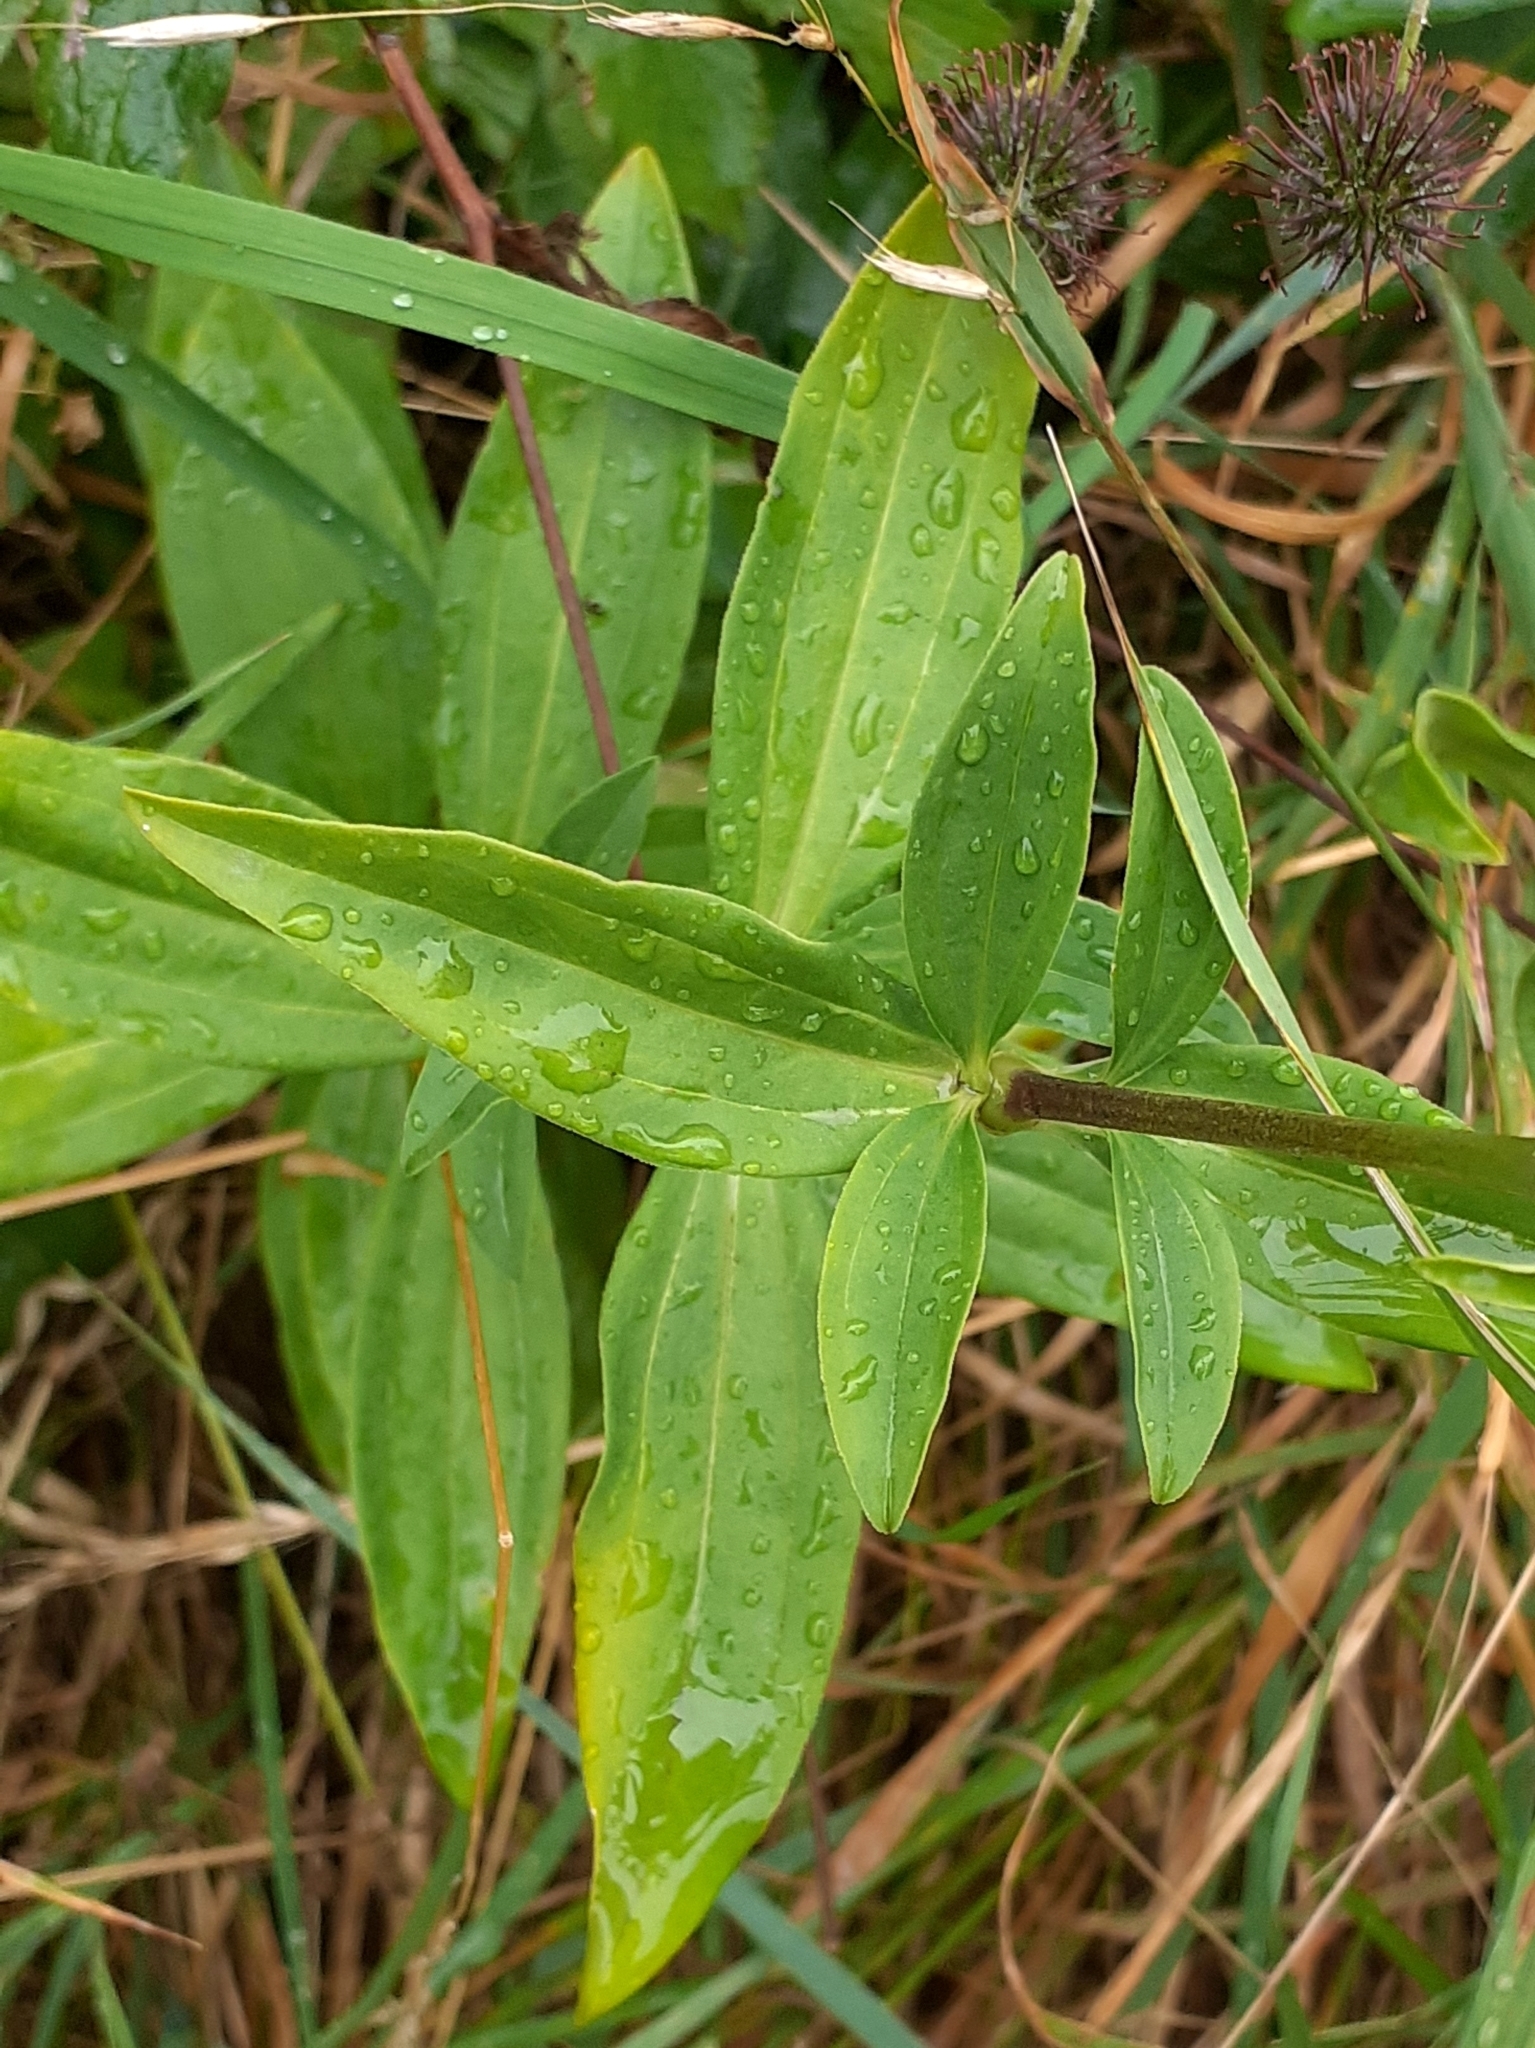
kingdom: Plantae
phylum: Tracheophyta
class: Magnoliopsida
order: Caryophyllales
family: Caryophyllaceae
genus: Saponaria
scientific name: Saponaria officinalis
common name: Soapwort
